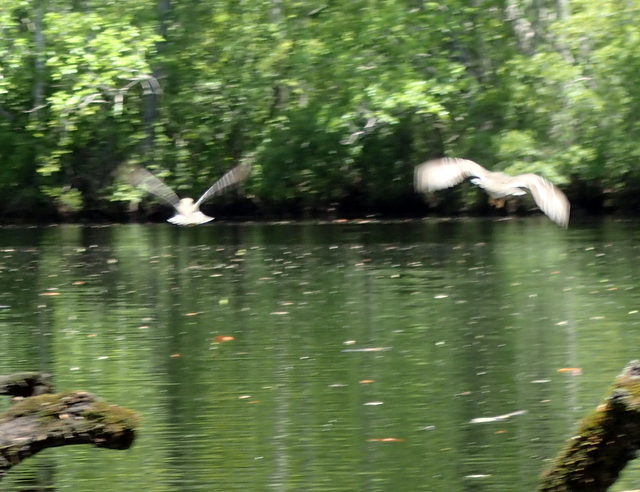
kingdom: Animalia
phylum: Chordata
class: Aves
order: Charadriiformes
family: Scolopacidae
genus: Actitis
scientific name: Actitis macularius
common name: Spotted sandpiper
